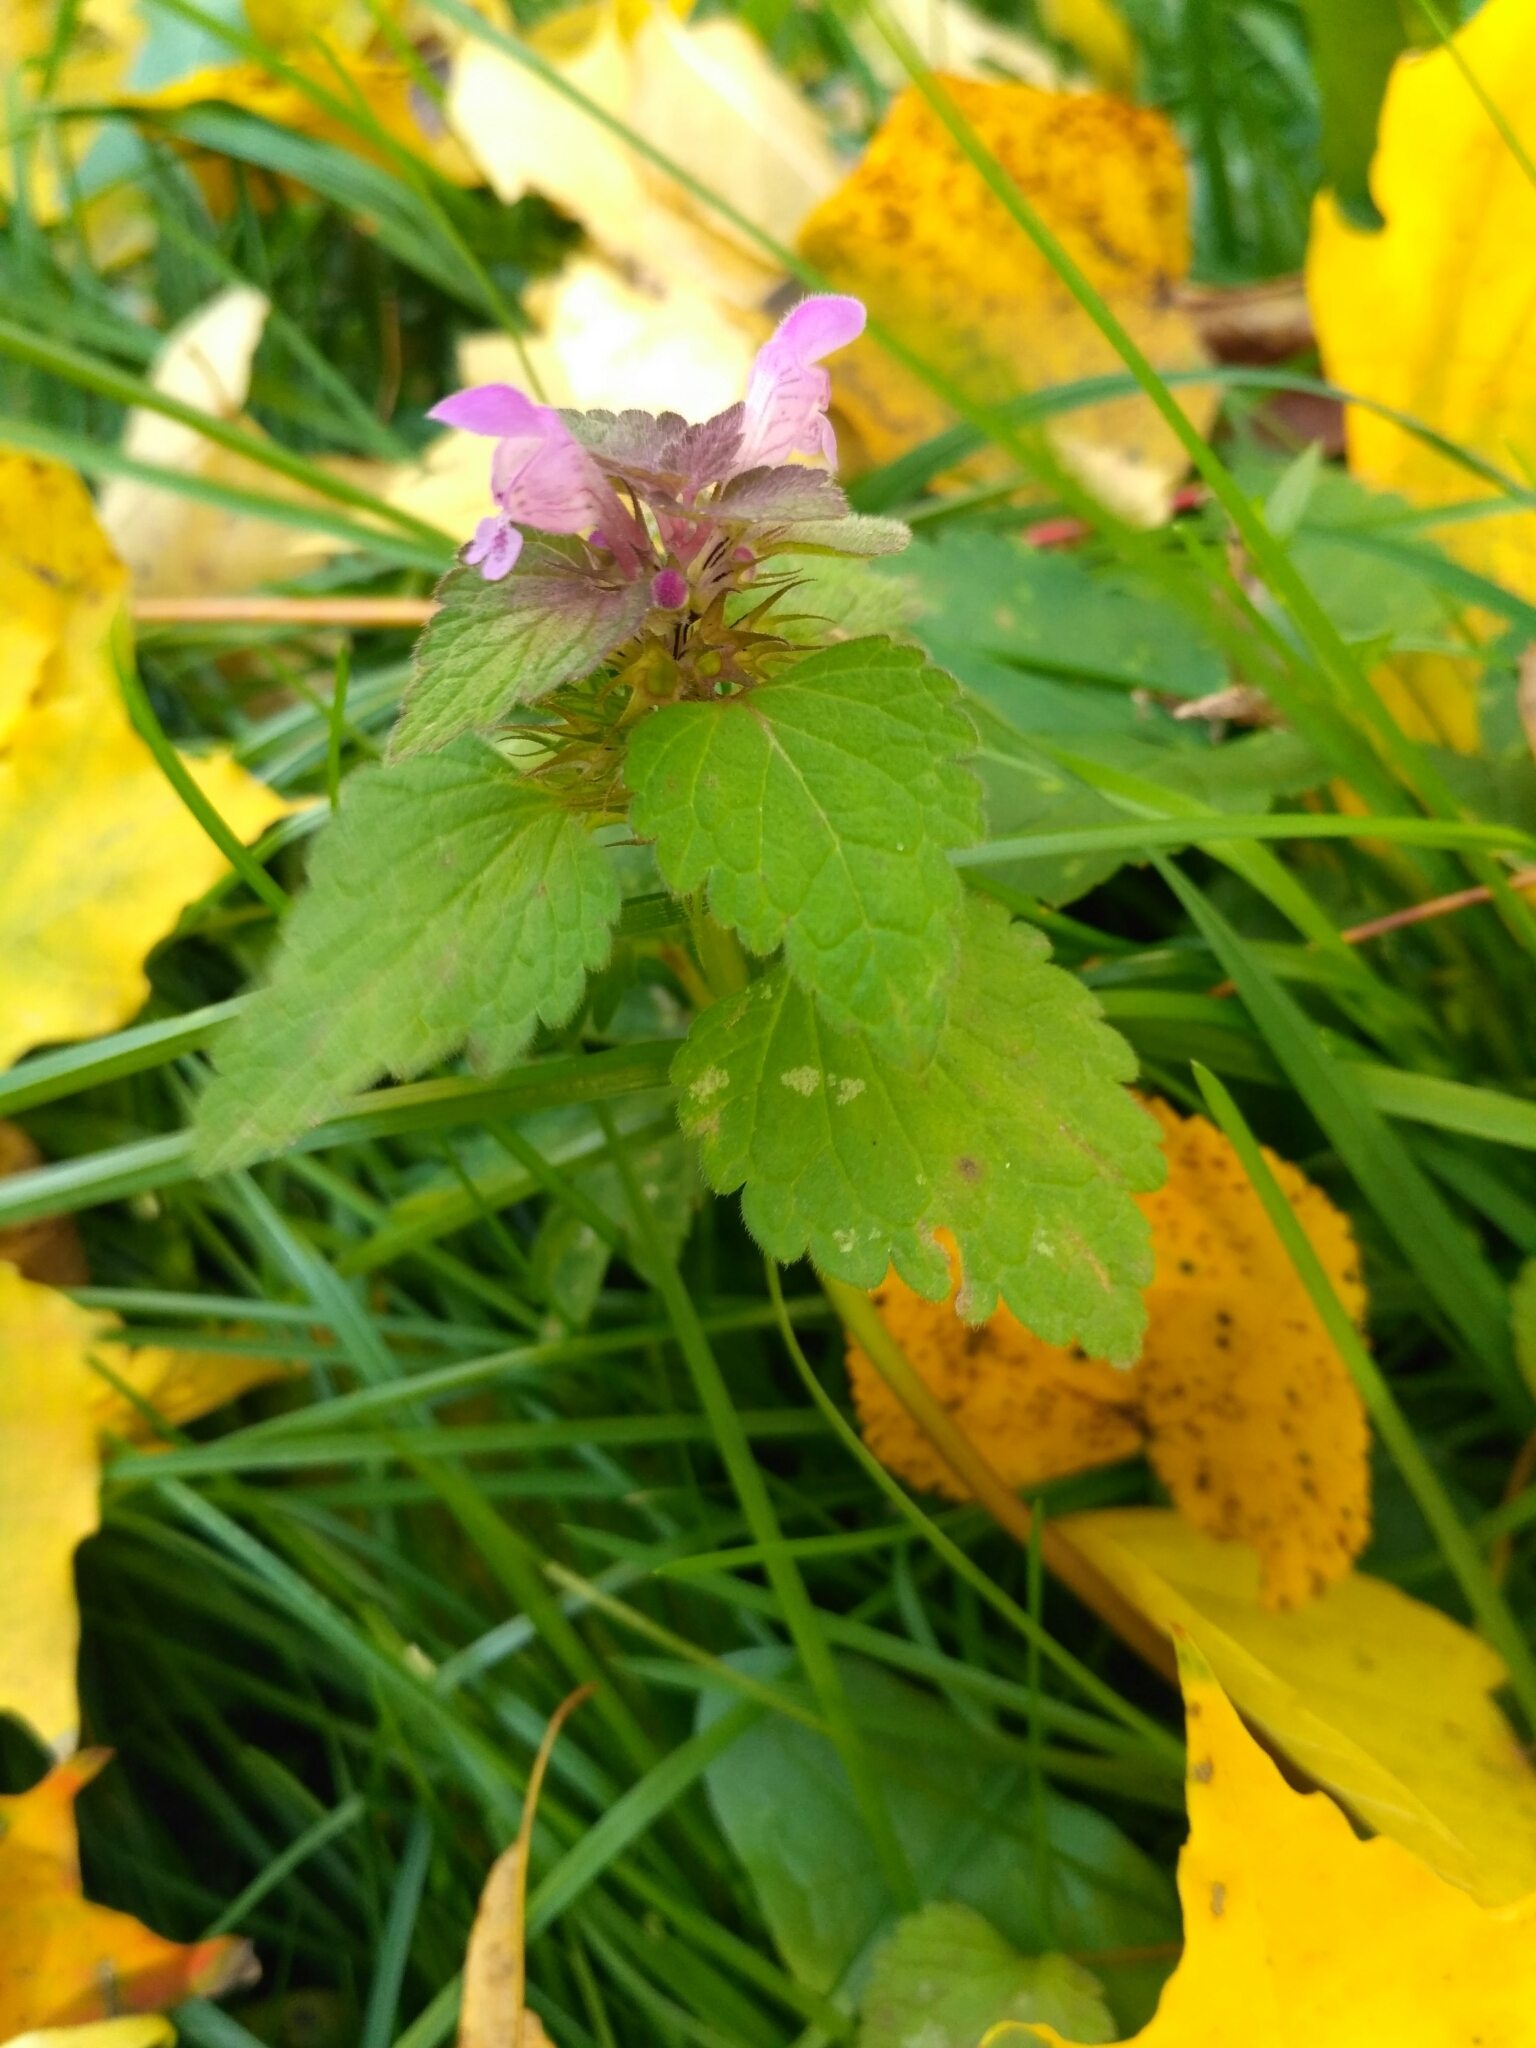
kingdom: Plantae
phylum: Tracheophyta
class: Magnoliopsida
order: Lamiales
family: Lamiaceae
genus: Lamium
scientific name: Lamium purpureum
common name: Red dead-nettle
